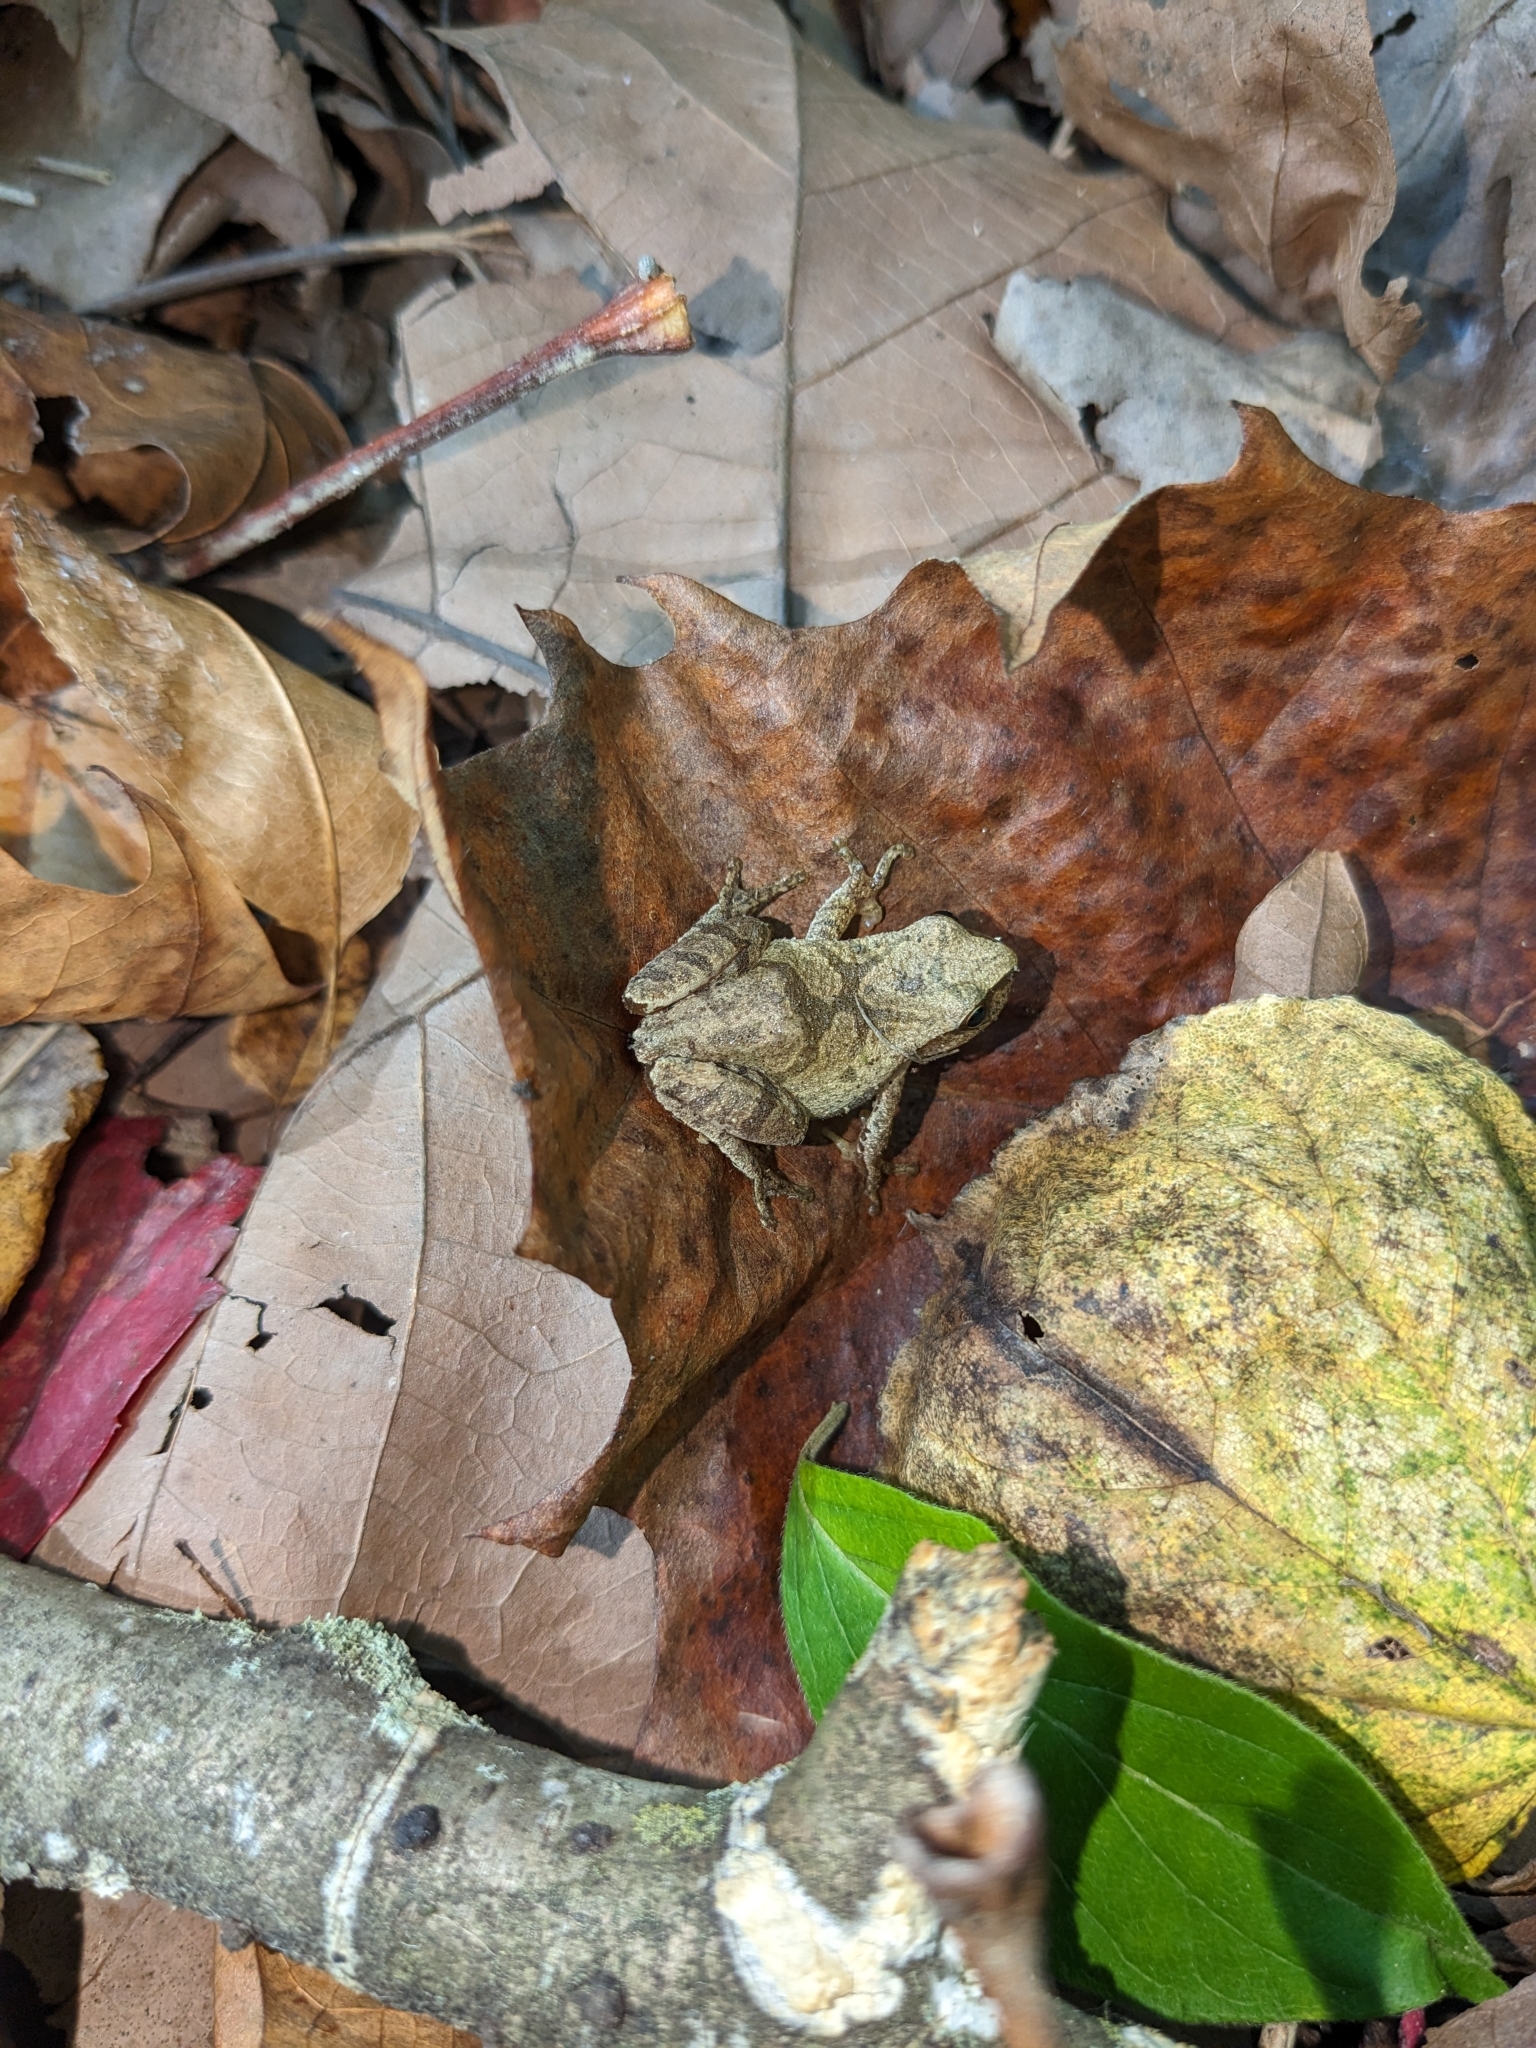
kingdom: Animalia
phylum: Chordata
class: Amphibia
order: Anura
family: Hylidae
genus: Pseudacris
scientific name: Pseudacris crucifer
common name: Spring peeper
